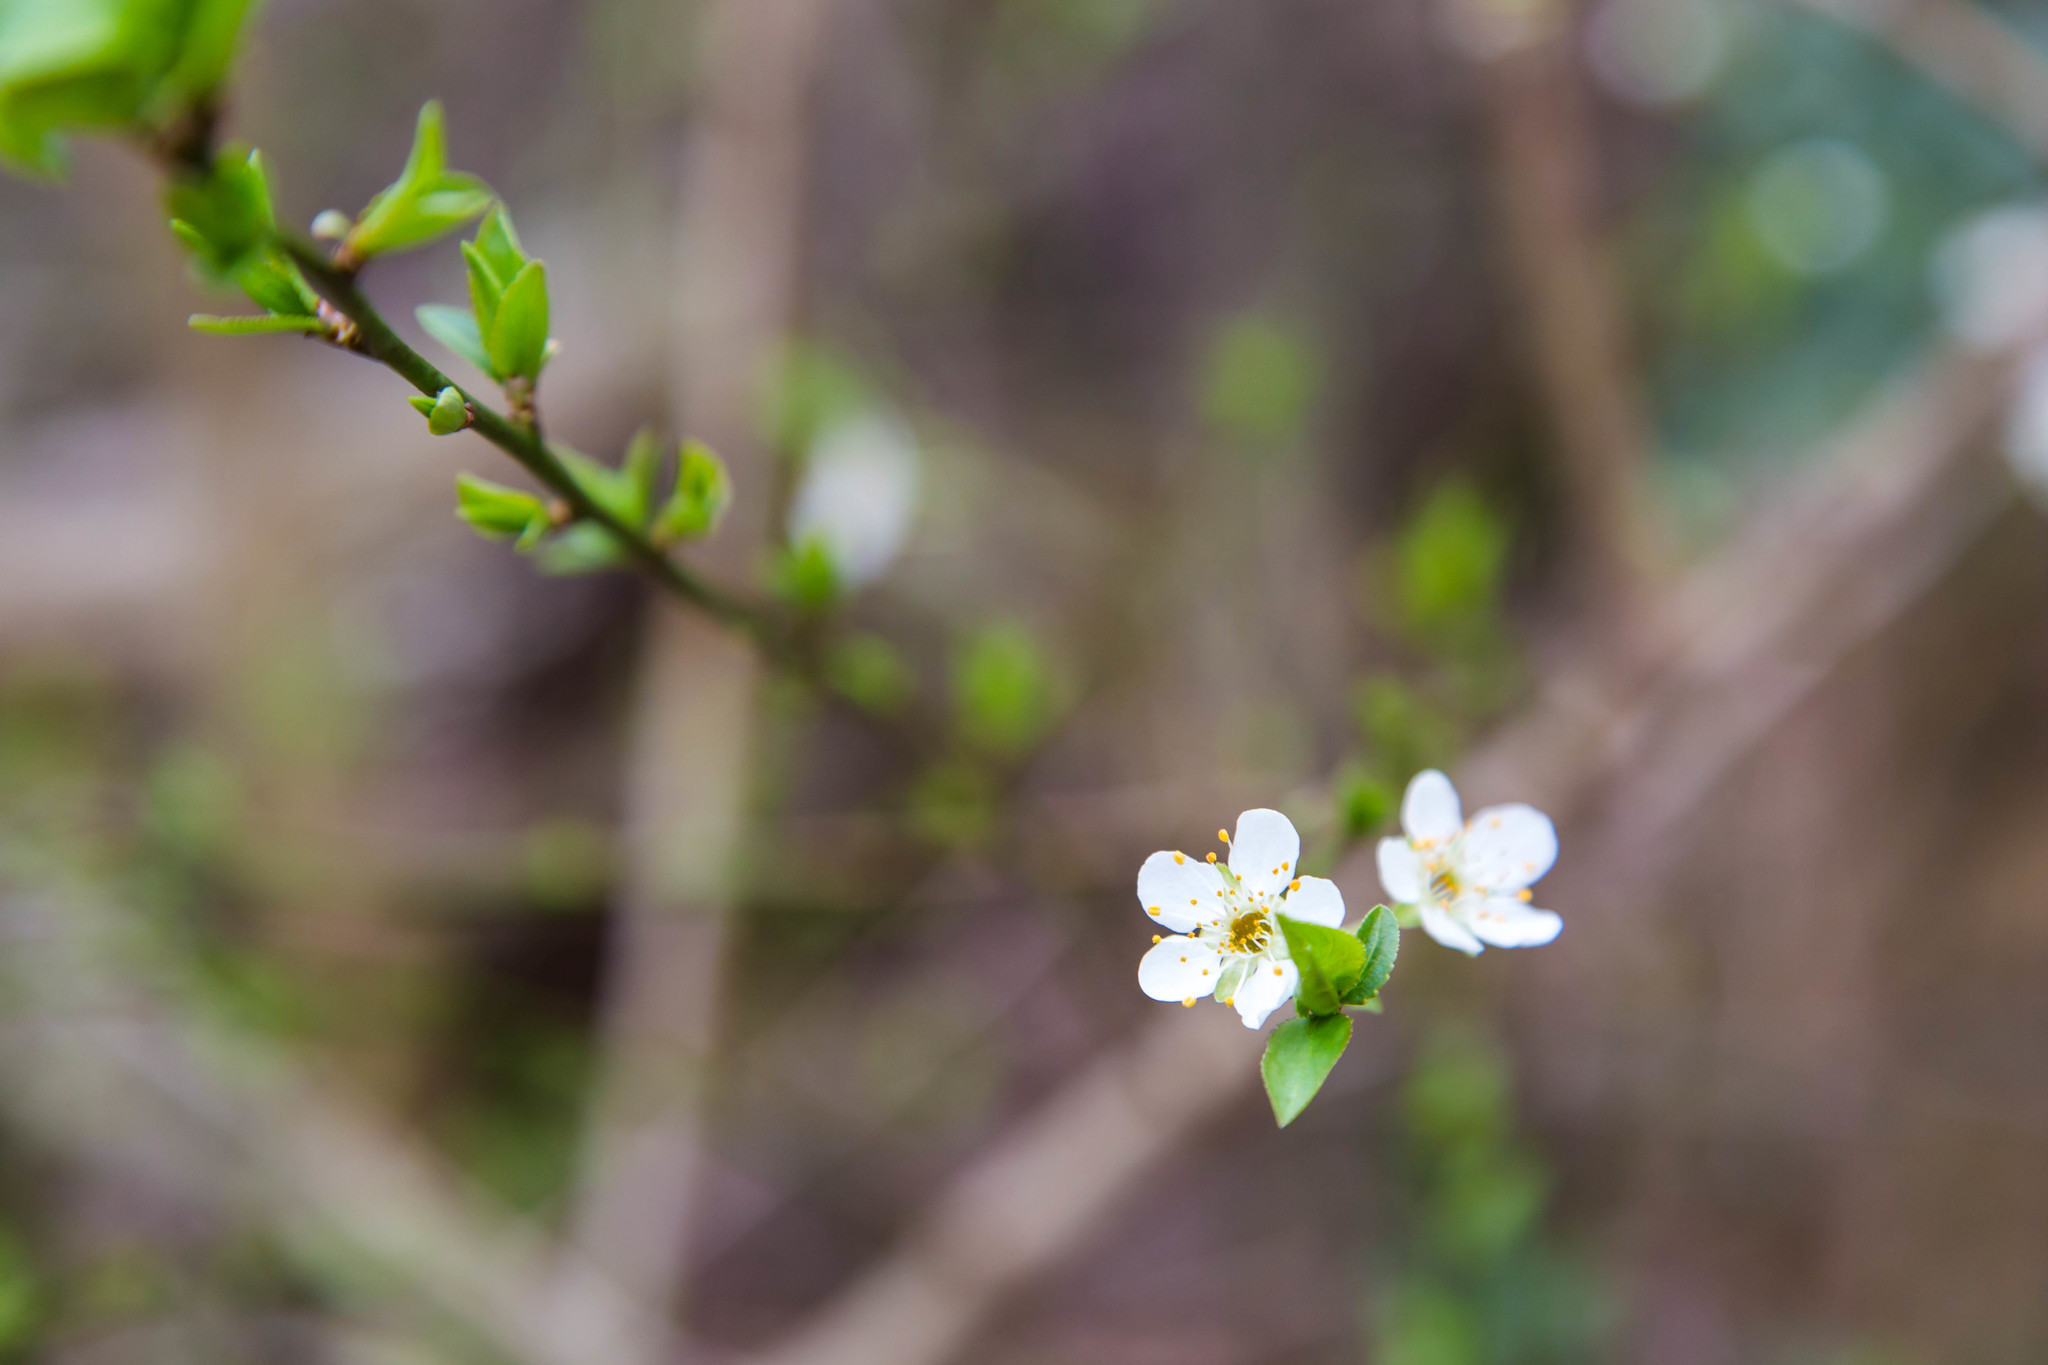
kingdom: Plantae
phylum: Tracheophyta
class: Magnoliopsida
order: Rosales
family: Rosaceae
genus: Pyrus
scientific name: Pyrus calleryana
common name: Callery pear
